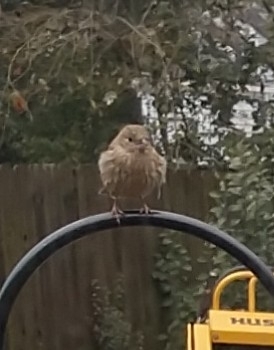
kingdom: Animalia
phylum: Chordata
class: Aves
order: Passeriformes
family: Fringillidae
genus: Haemorhous
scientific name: Haemorhous mexicanus
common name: House finch
